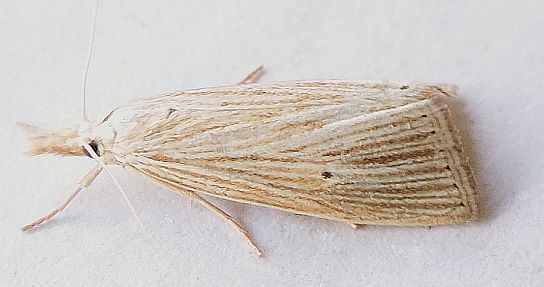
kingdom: Animalia
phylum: Arthropoda
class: Insecta
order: Lepidoptera
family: Crambidae
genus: Xubida
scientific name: Xubida panalope
